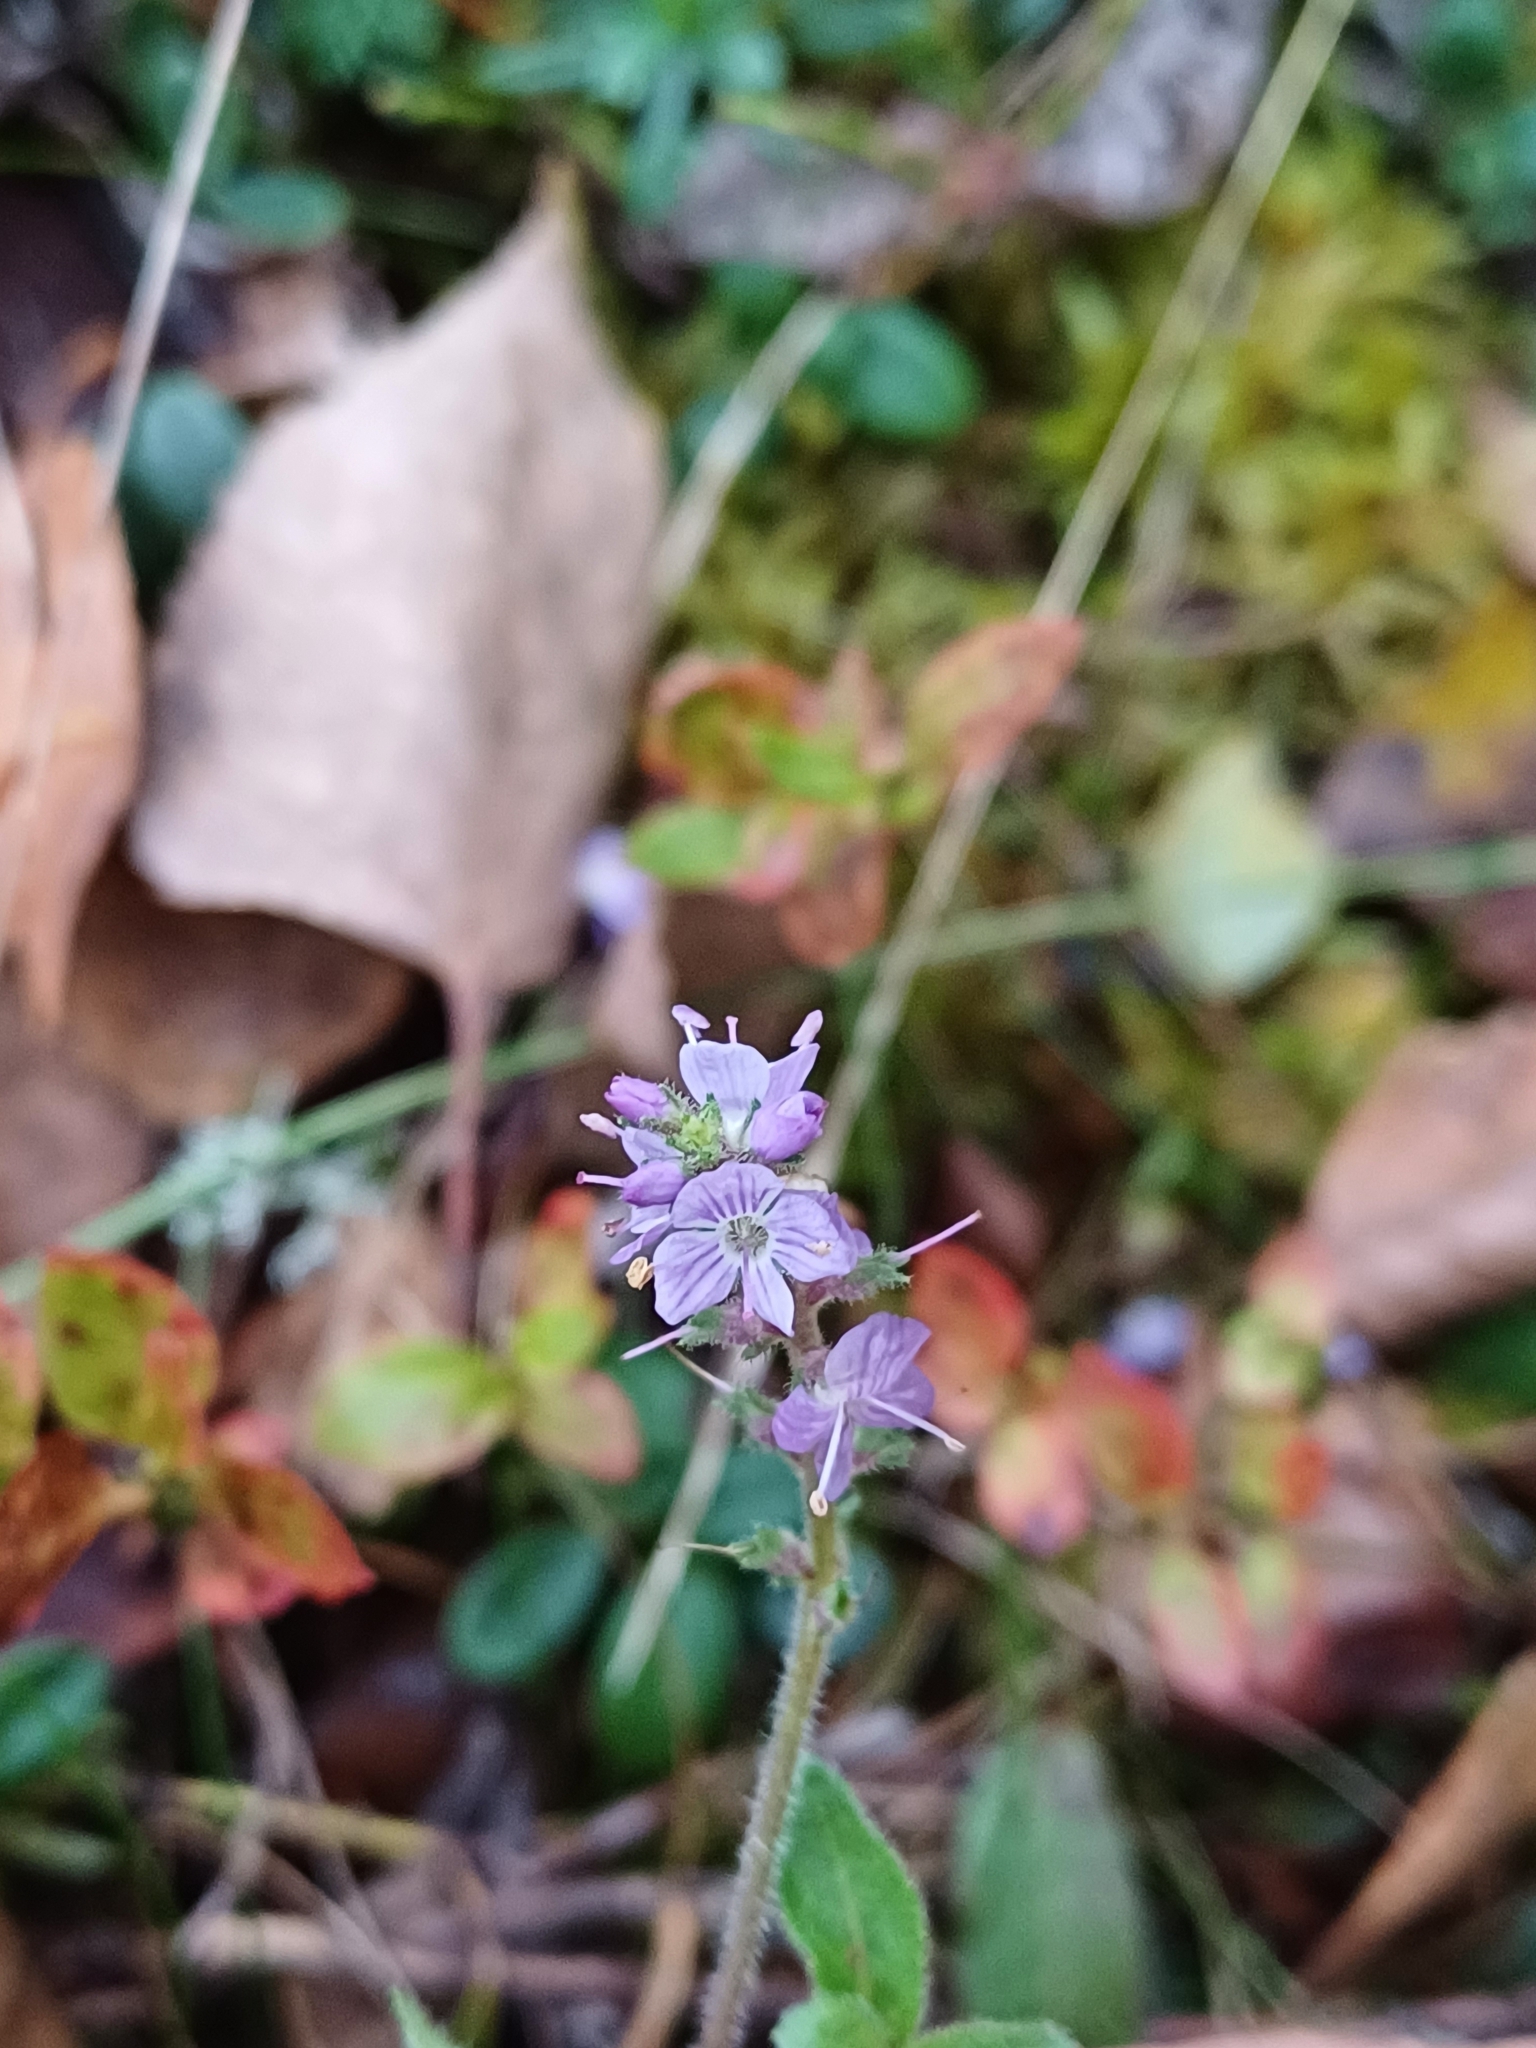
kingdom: Plantae
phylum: Tracheophyta
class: Magnoliopsida
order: Lamiales
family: Plantaginaceae
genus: Veronica
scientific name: Veronica officinalis
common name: Common speedwell
